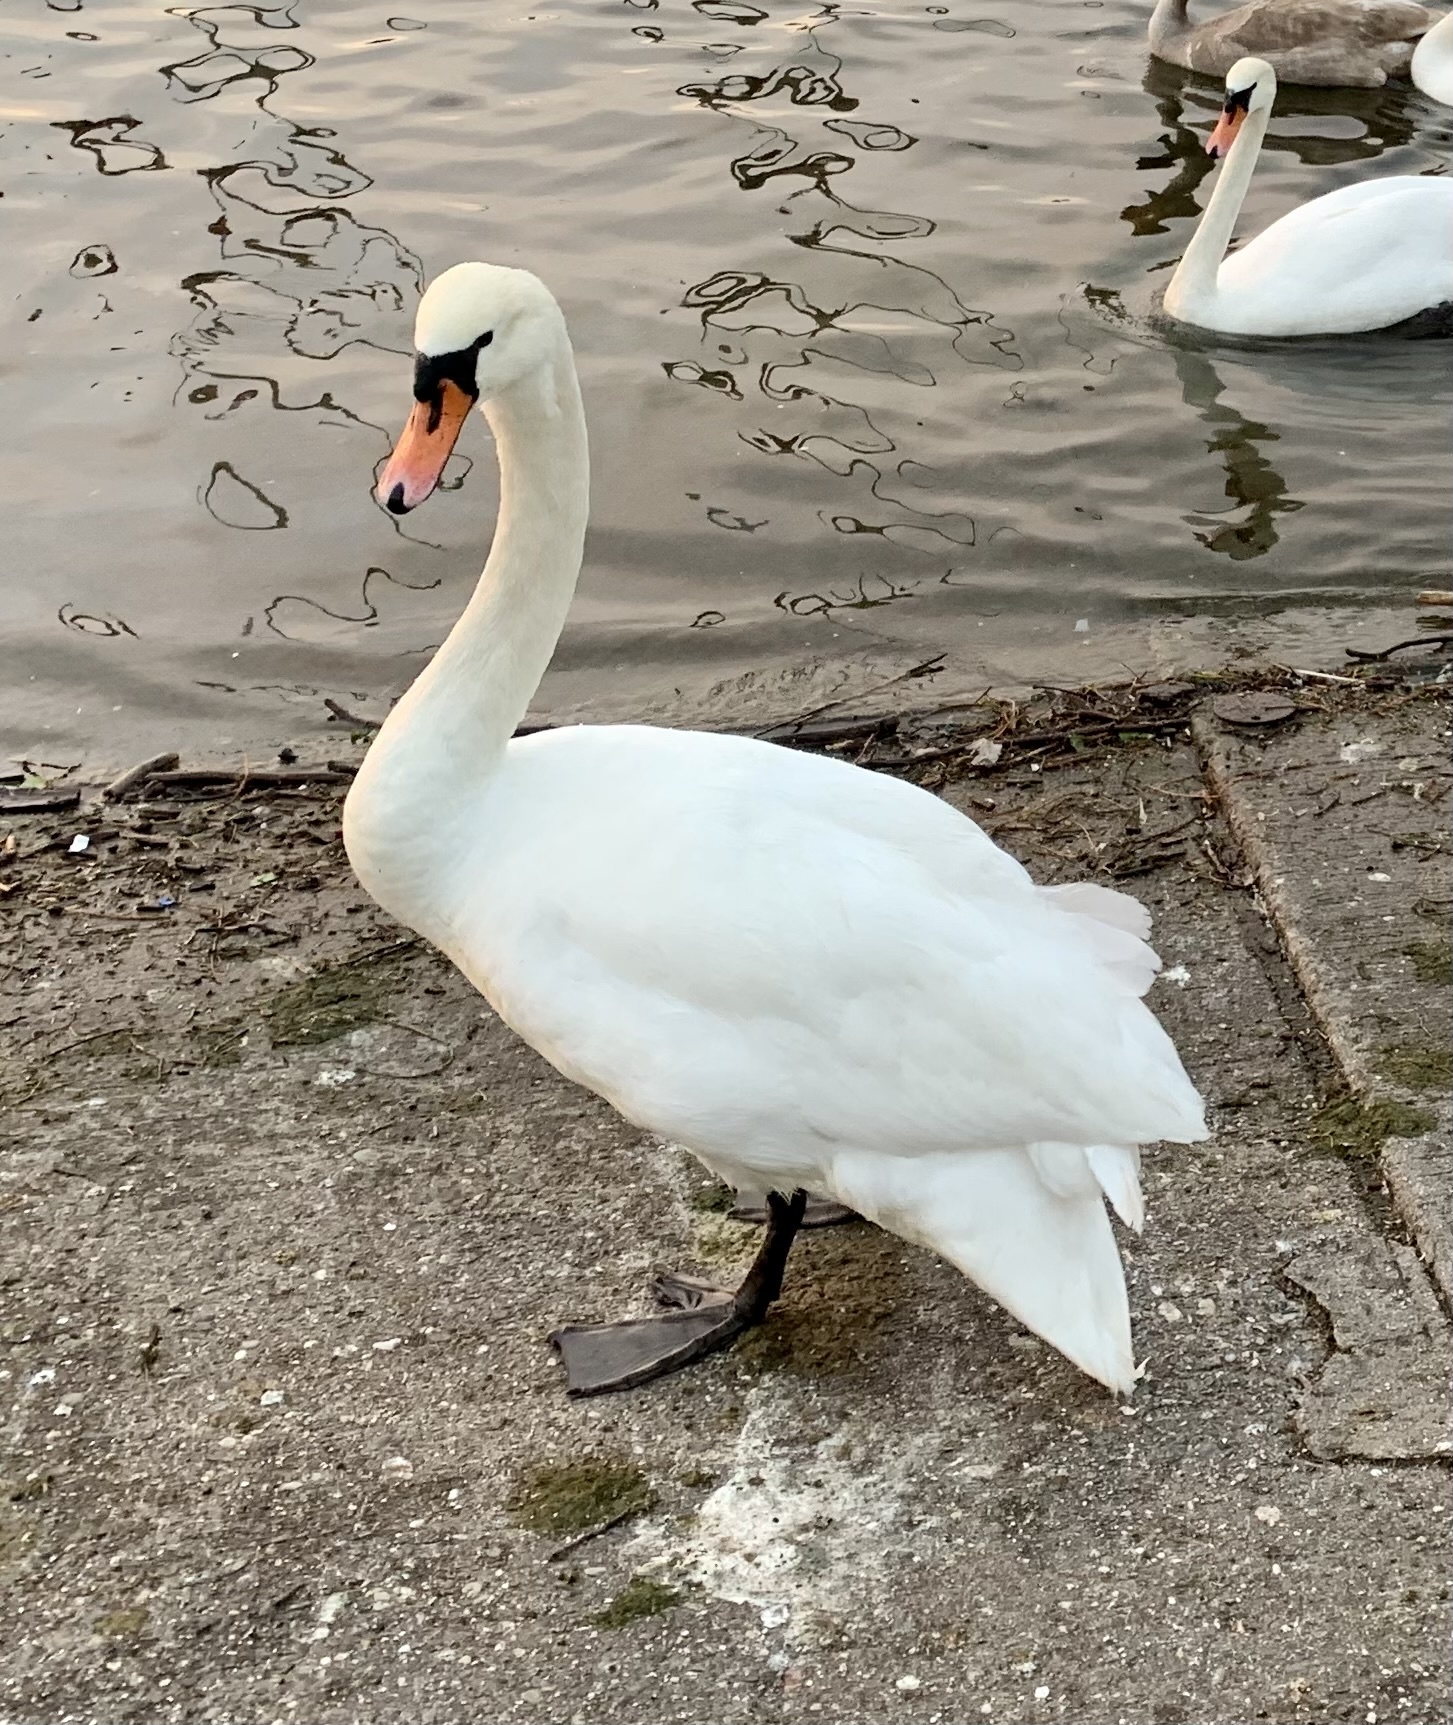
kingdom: Animalia
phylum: Chordata
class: Aves
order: Anseriformes
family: Anatidae
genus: Cygnus
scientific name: Cygnus olor
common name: Mute swan
